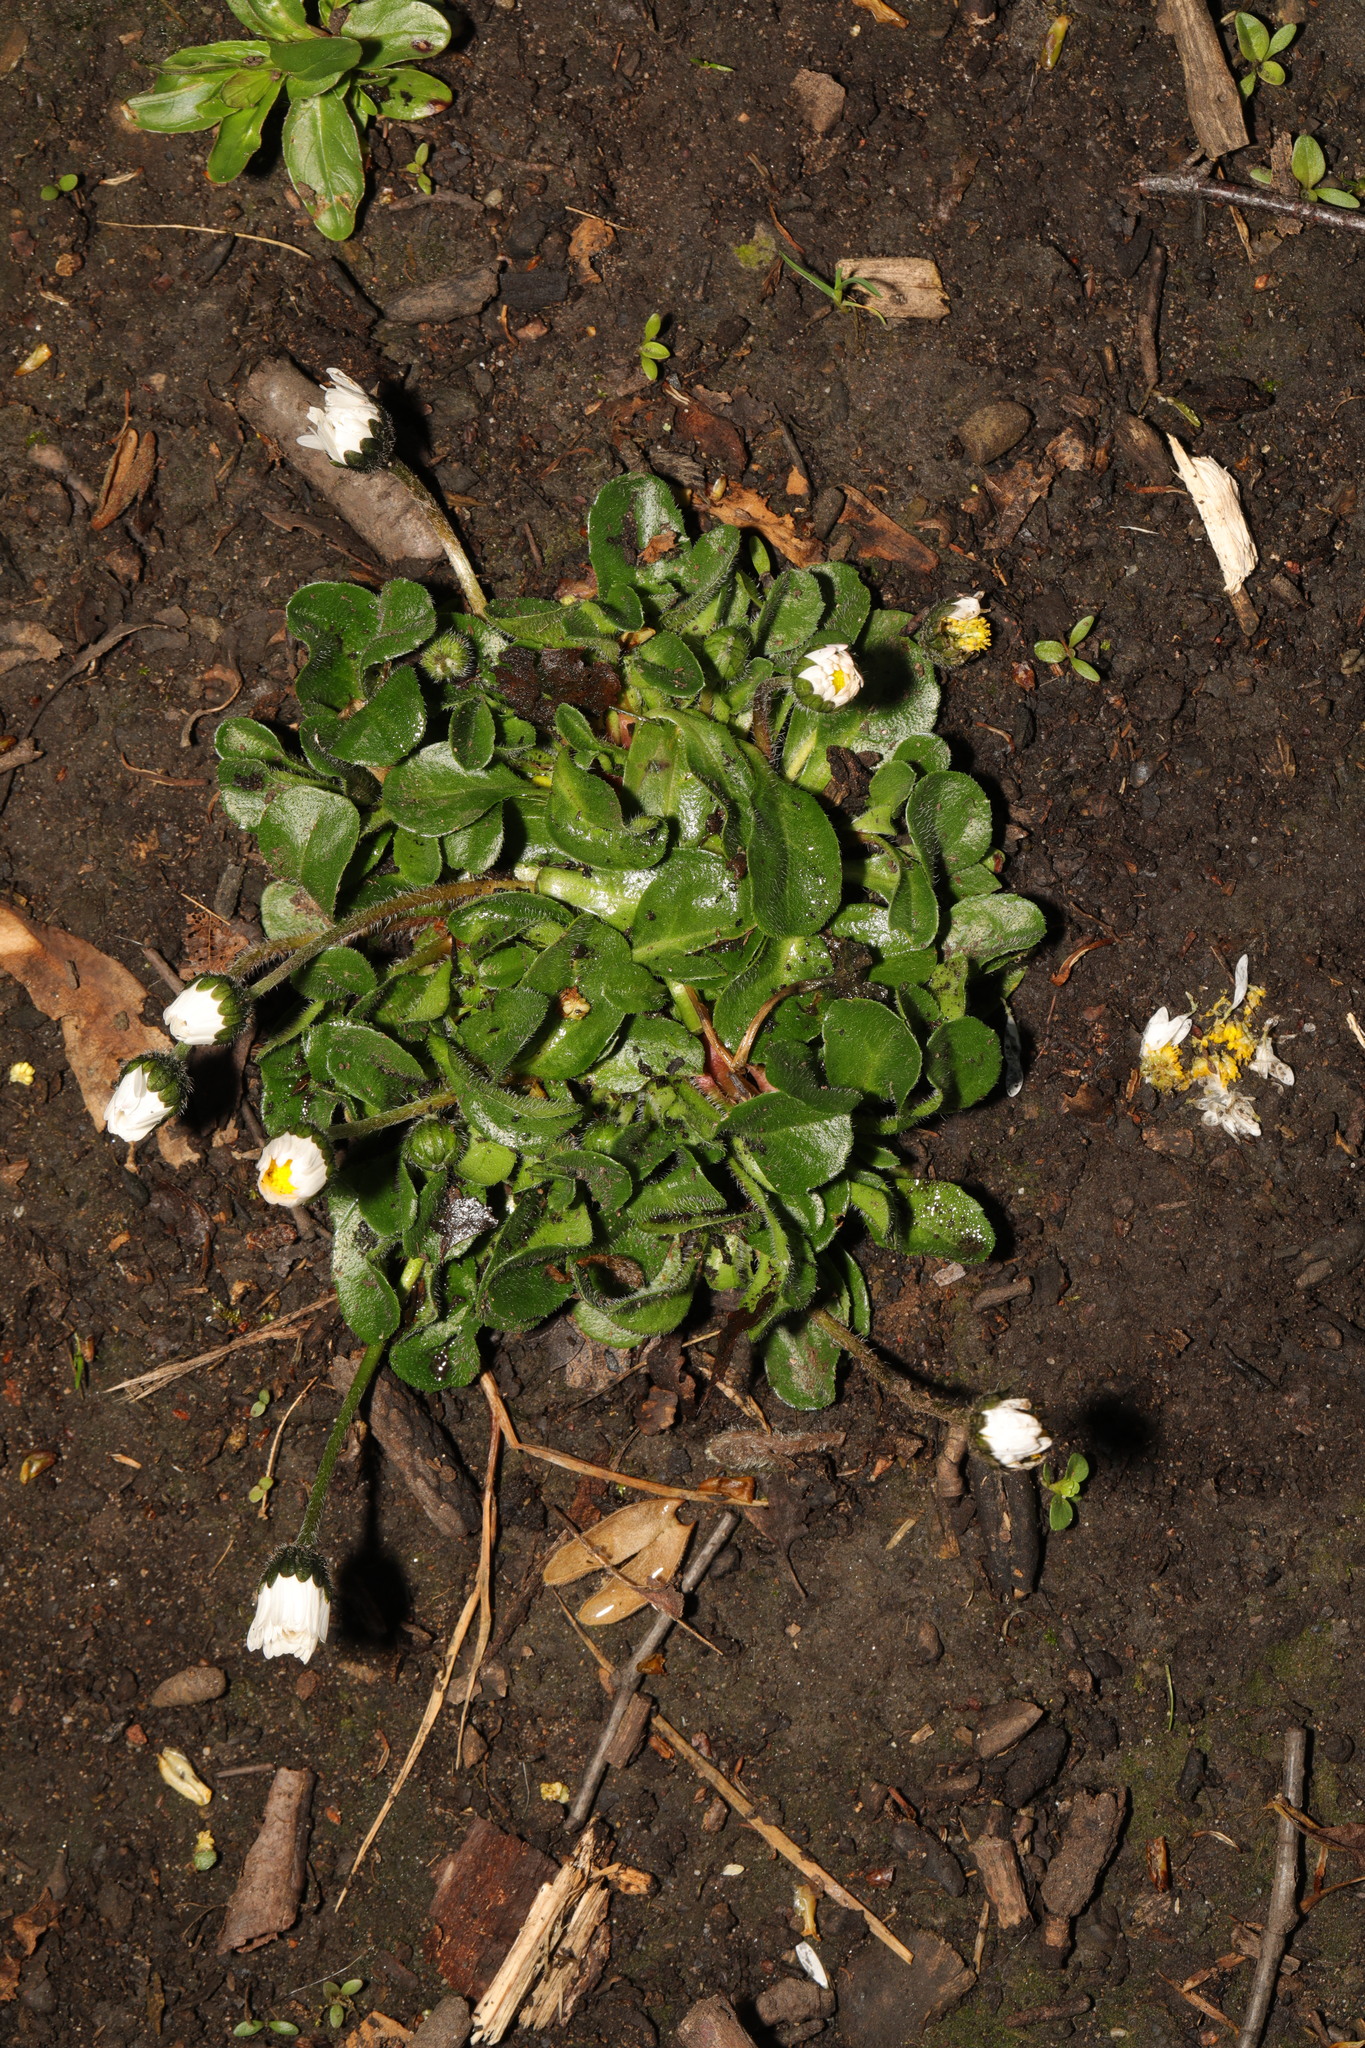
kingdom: Plantae
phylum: Tracheophyta
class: Magnoliopsida
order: Asterales
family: Asteraceae
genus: Bellis
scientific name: Bellis perennis
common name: Lawndaisy
